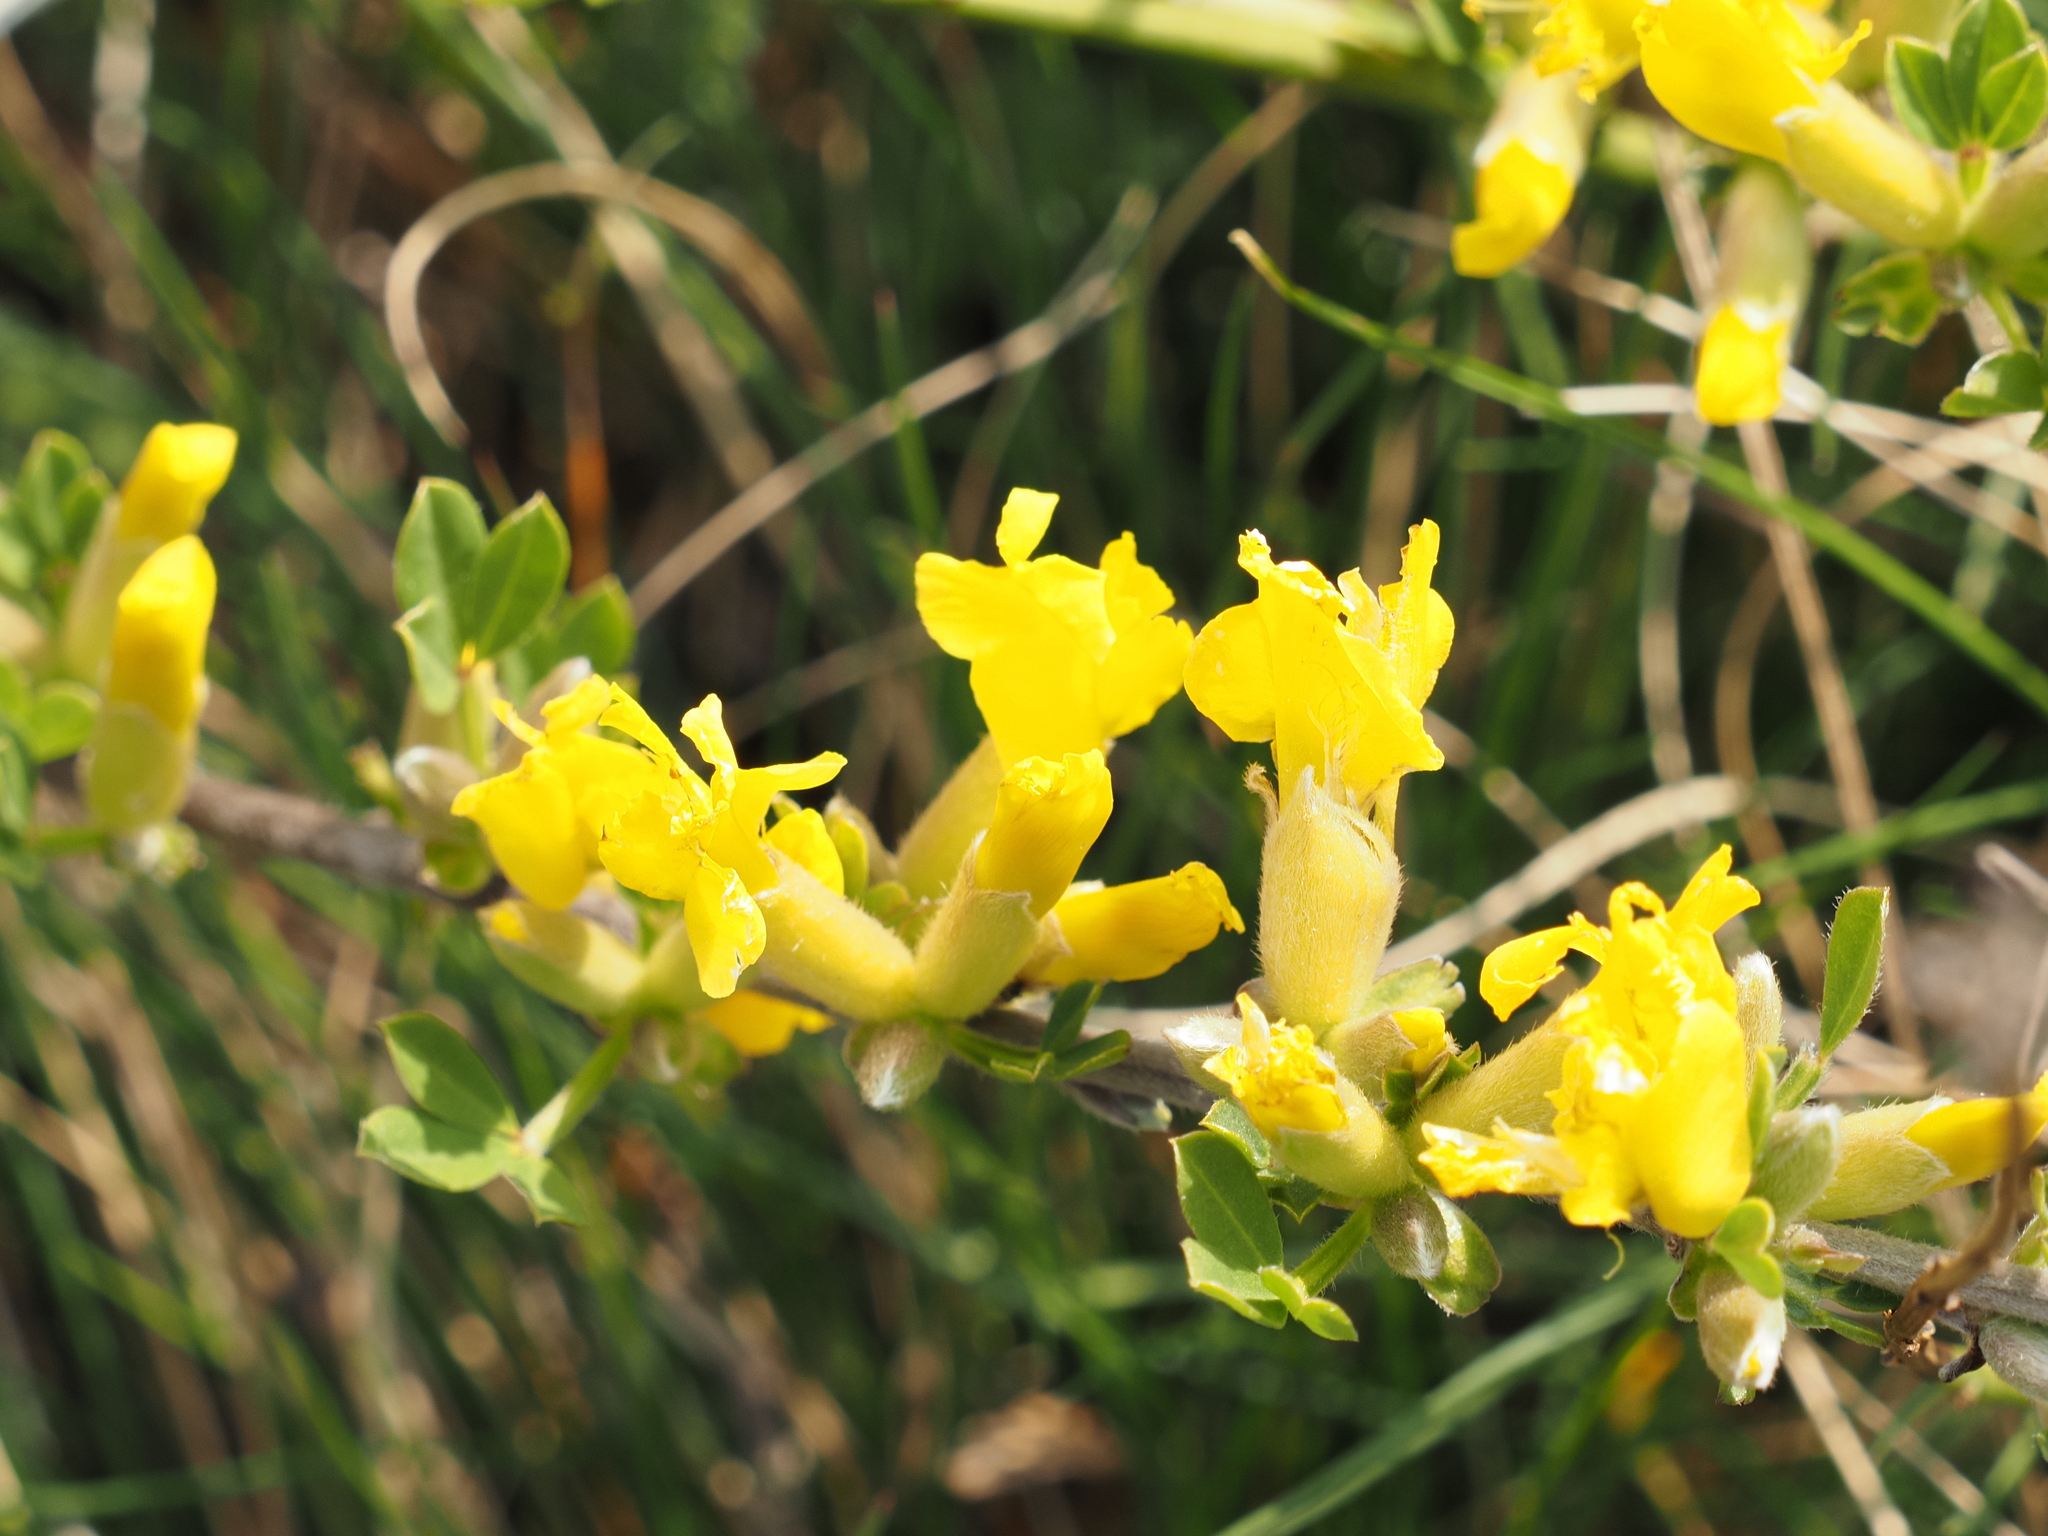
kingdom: Plantae
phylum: Tracheophyta
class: Magnoliopsida
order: Fabales
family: Fabaceae
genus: Chamaecytisus
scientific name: Chamaecytisus ratisbonensis
